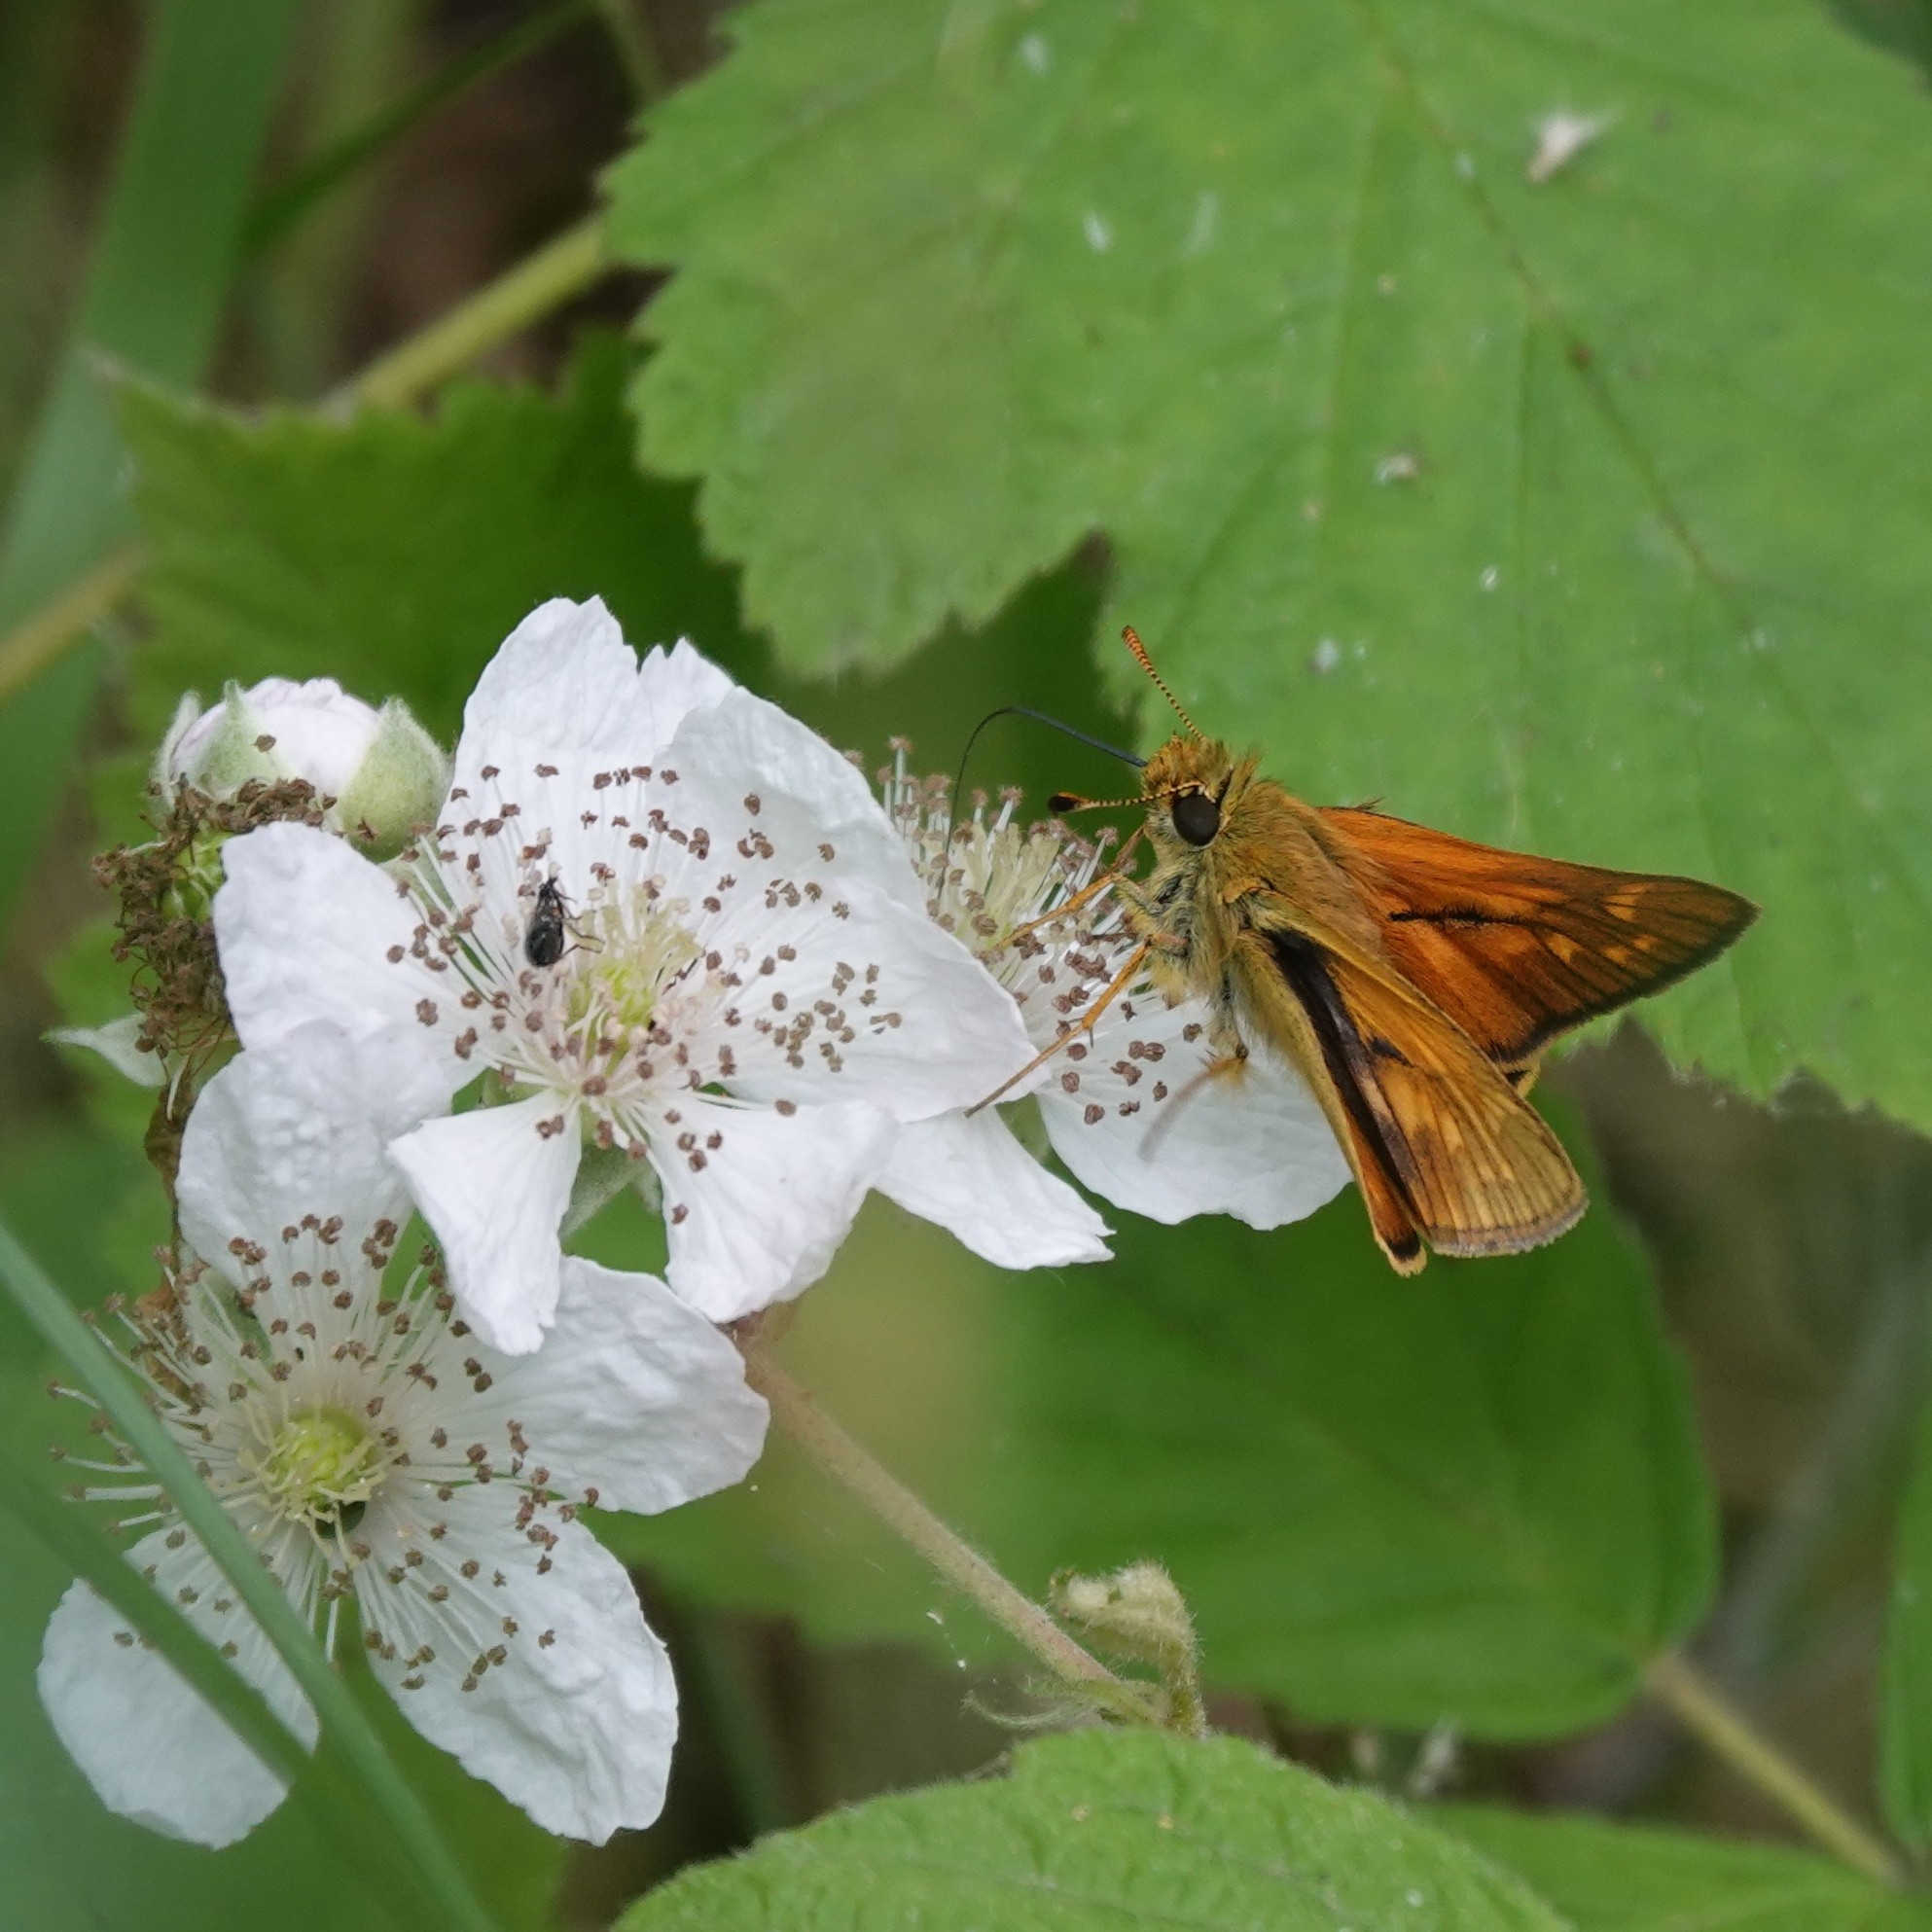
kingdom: Animalia
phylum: Arthropoda
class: Insecta
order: Lepidoptera
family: Hesperiidae
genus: Ochlodes
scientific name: Ochlodes venata
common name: Large skipper
